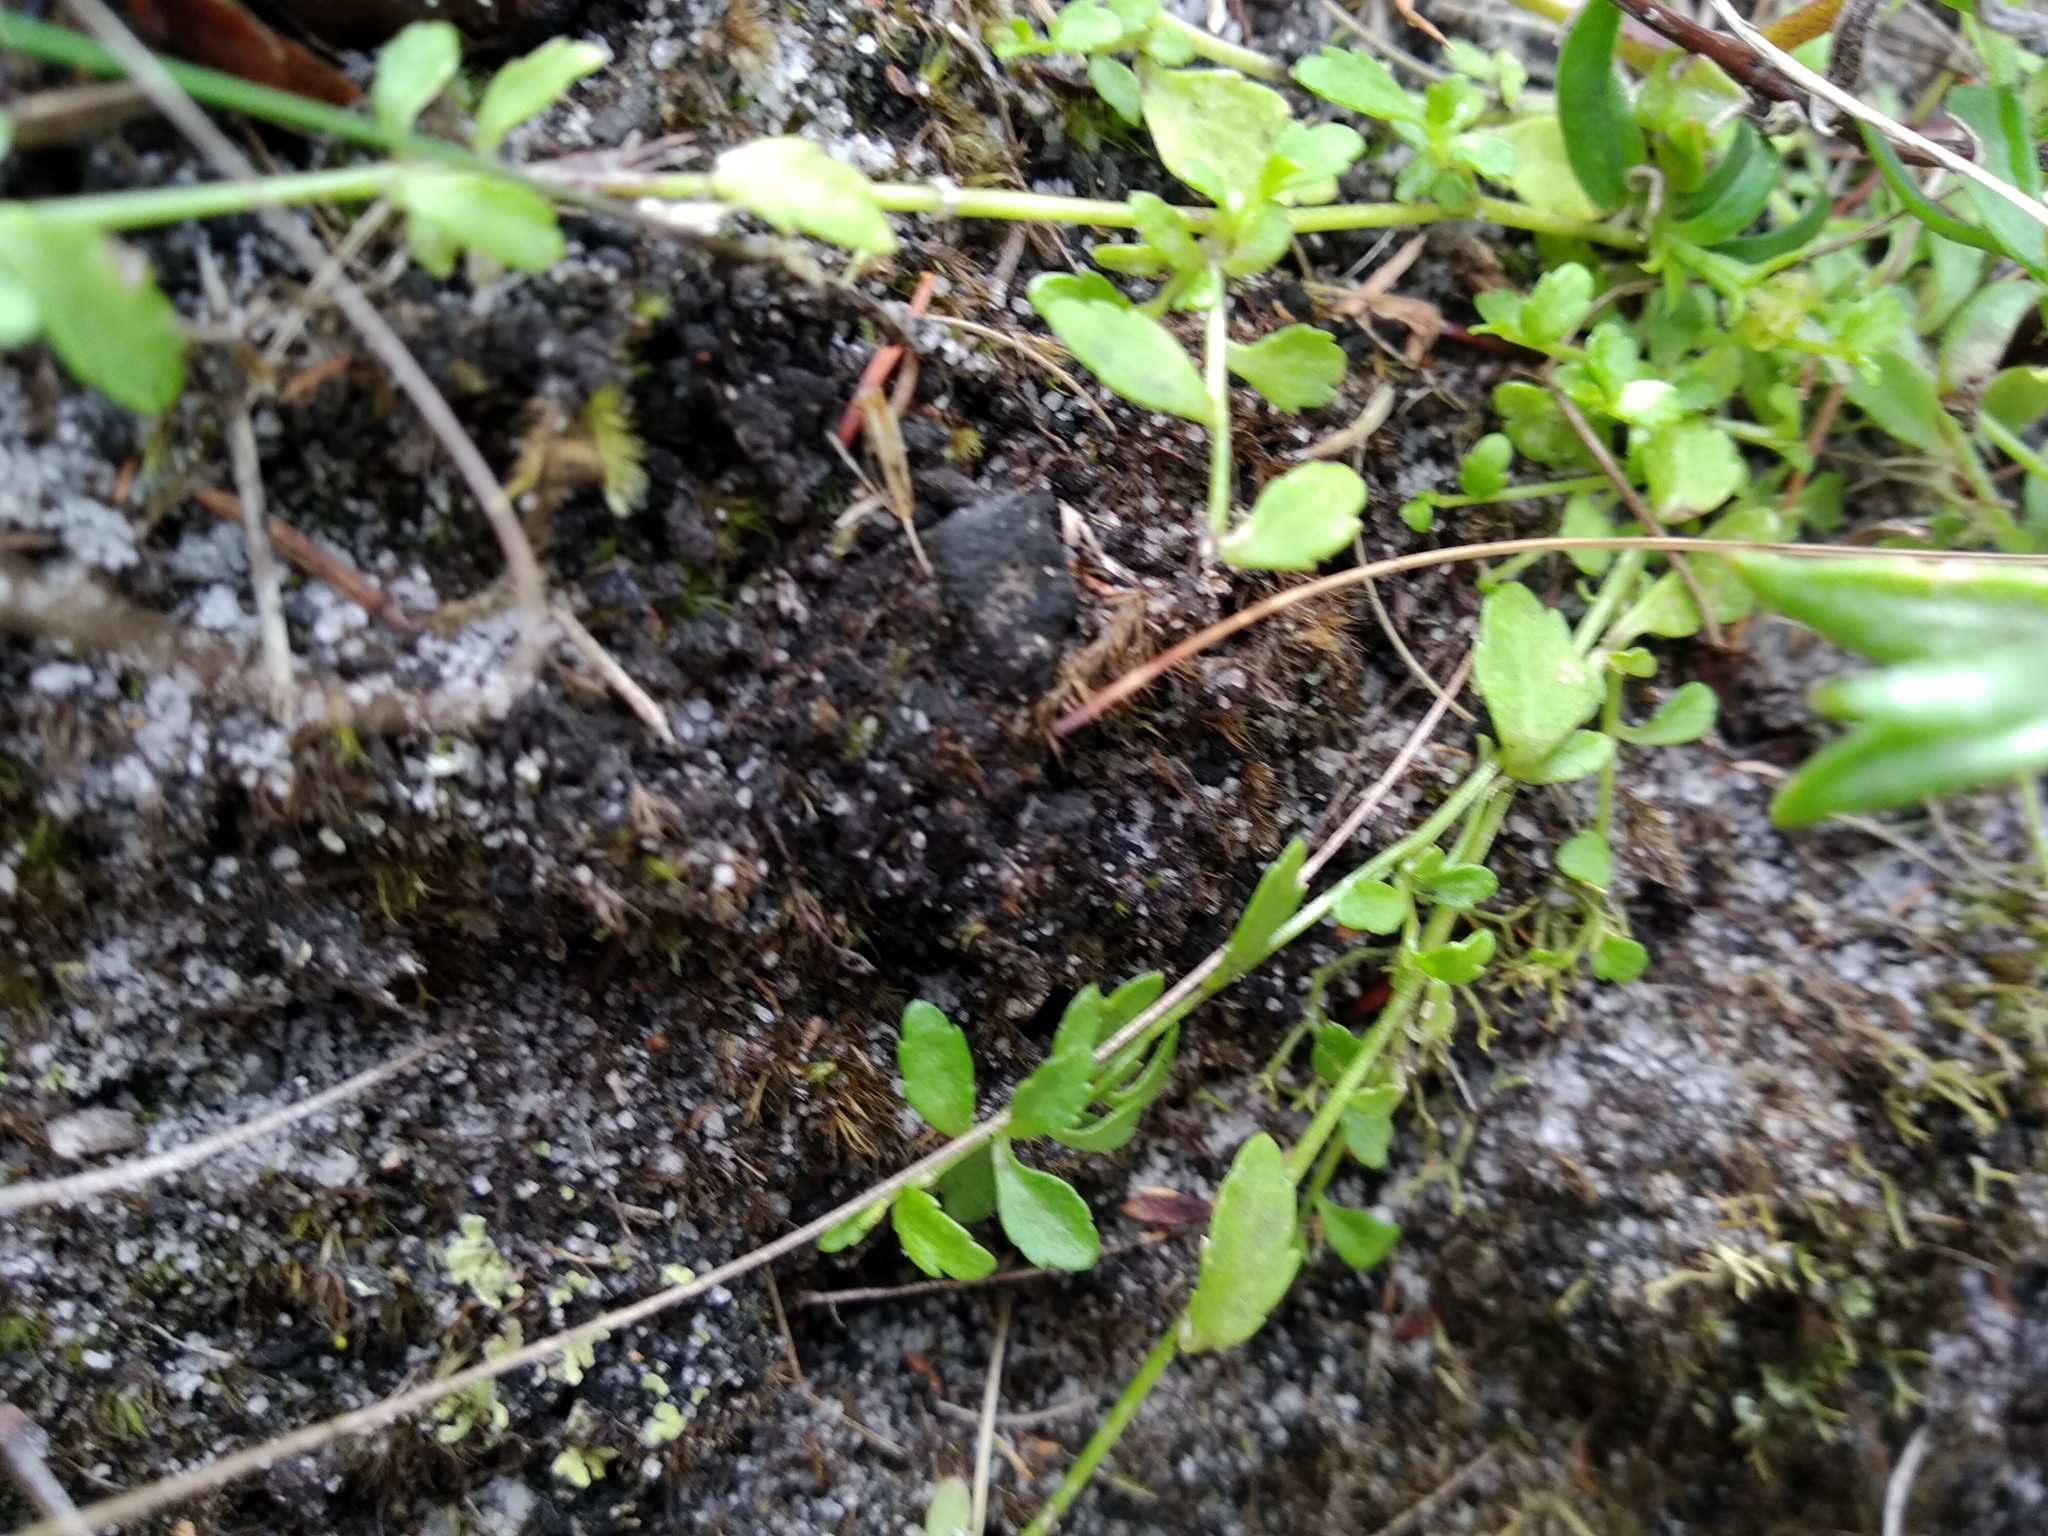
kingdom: Plantae
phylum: Tracheophyta
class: Magnoliopsida
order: Asterales
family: Campanulaceae
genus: Unigenes
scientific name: Unigenes humifusa
